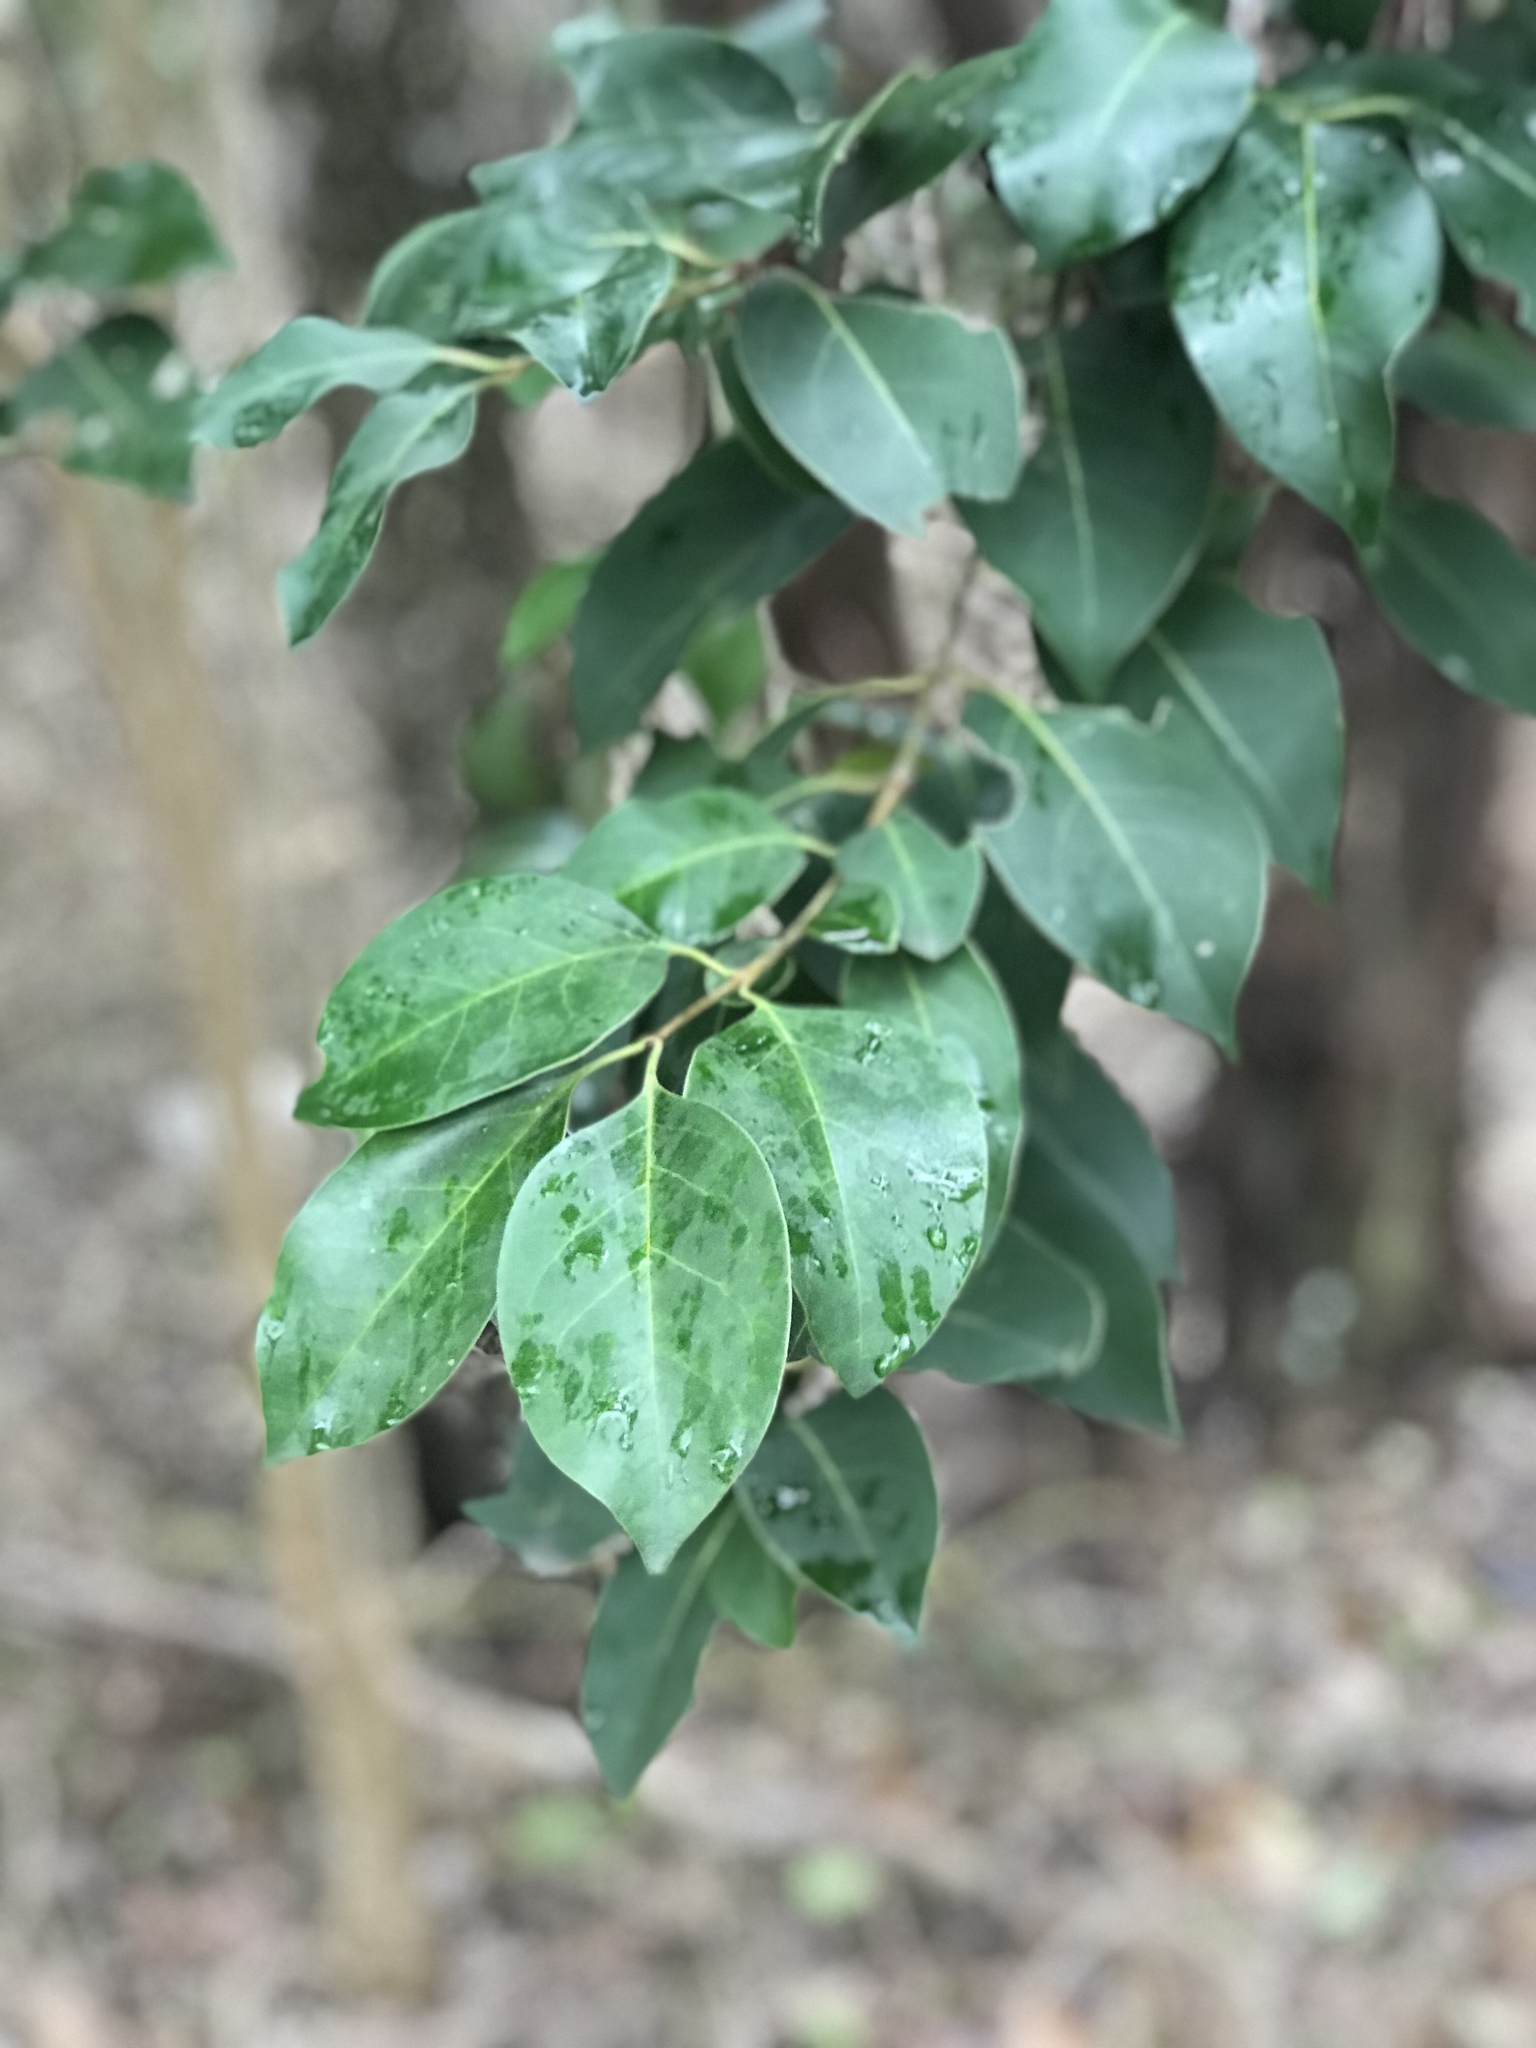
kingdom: Plantae
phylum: Tracheophyta
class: Magnoliopsida
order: Lamiales
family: Oleaceae
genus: Ligustrum
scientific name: Ligustrum lucidum
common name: Glossy privet
